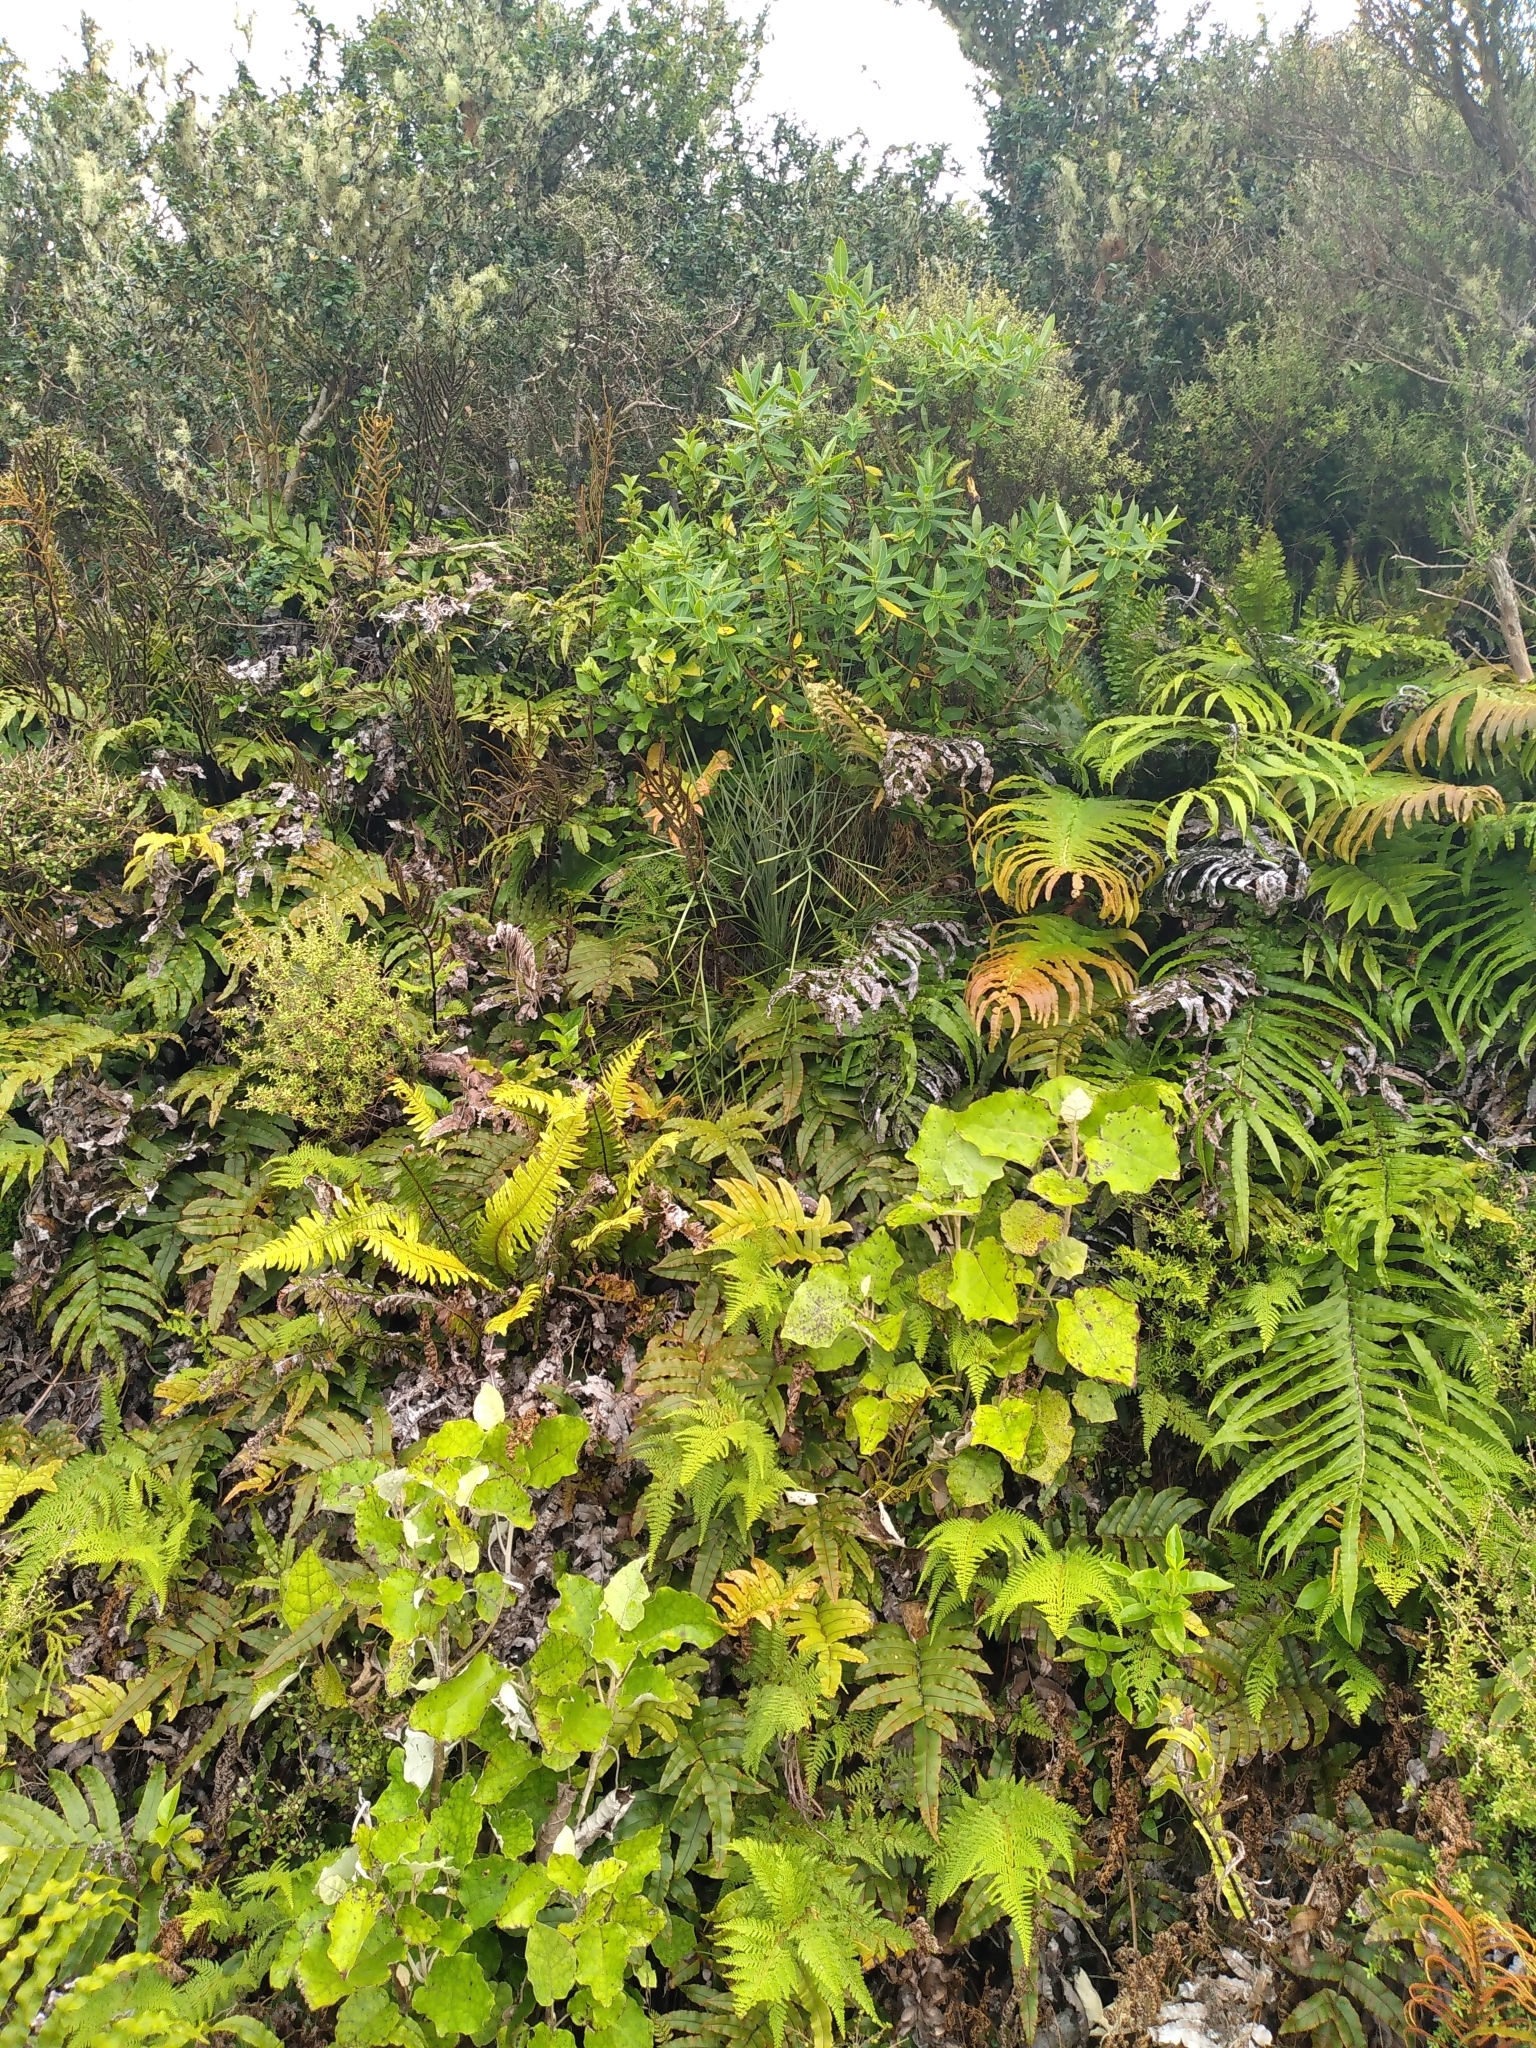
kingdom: Plantae
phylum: Tracheophyta
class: Magnoliopsida
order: Apiales
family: Apiaceae
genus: Aciphylla
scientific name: Aciphylla squarrosa
